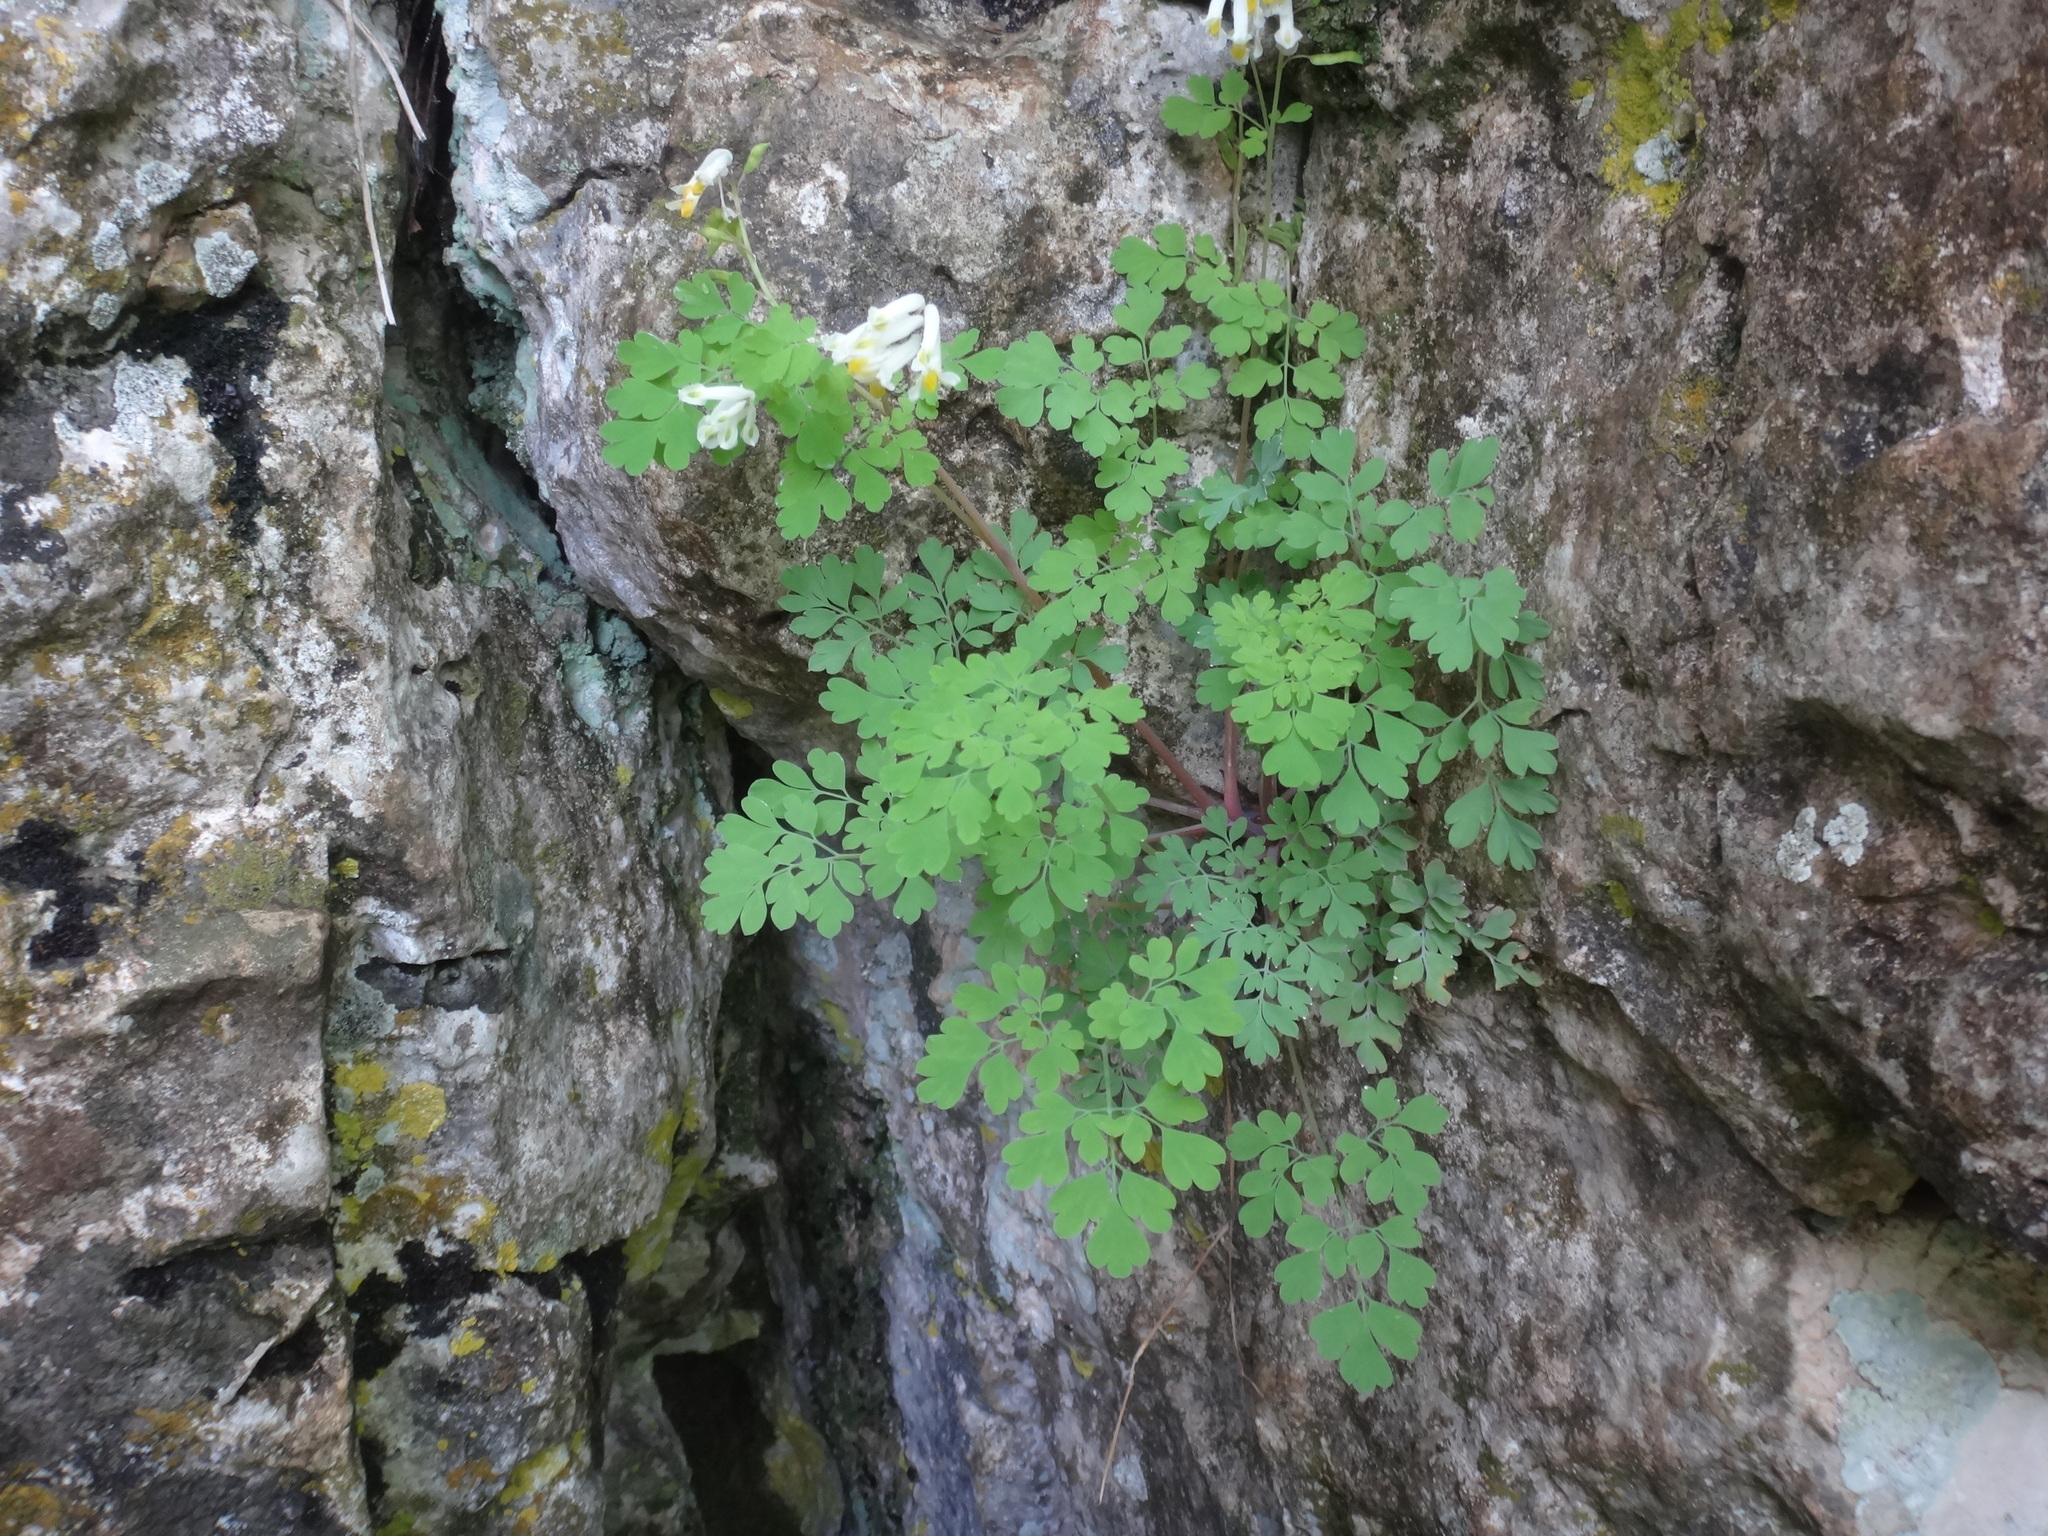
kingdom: Plantae
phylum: Tracheophyta
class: Magnoliopsida
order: Ranunculales
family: Papaveraceae
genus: Pseudofumaria
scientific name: Pseudofumaria alba
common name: Pale corydalis
